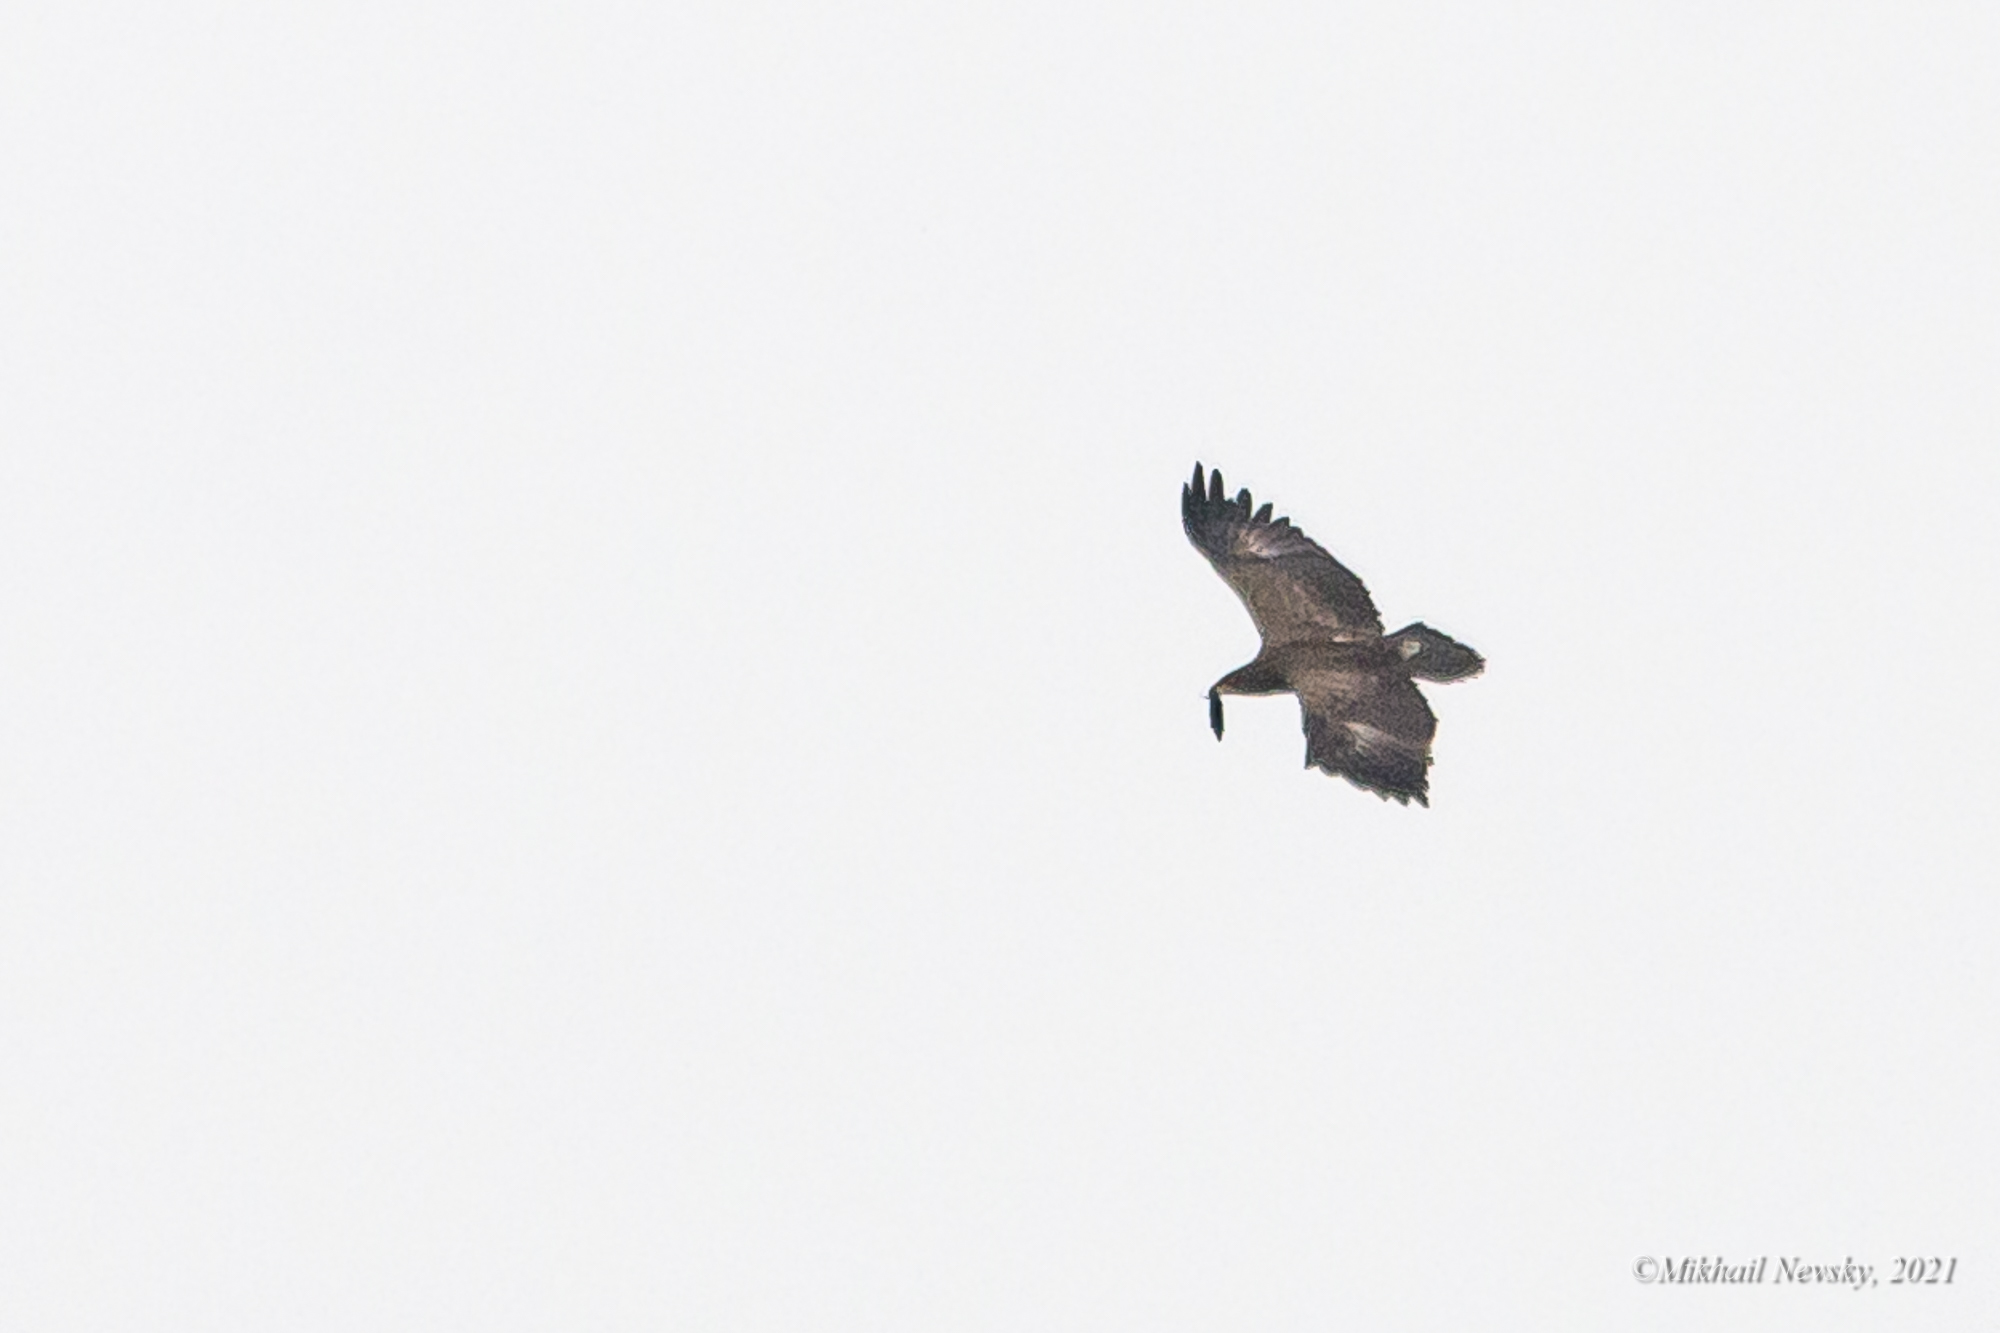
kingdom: Animalia
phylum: Chordata
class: Aves
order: Accipitriformes
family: Accipitridae
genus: Aquila
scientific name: Aquila pomarina
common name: Lesser spotted eagle
